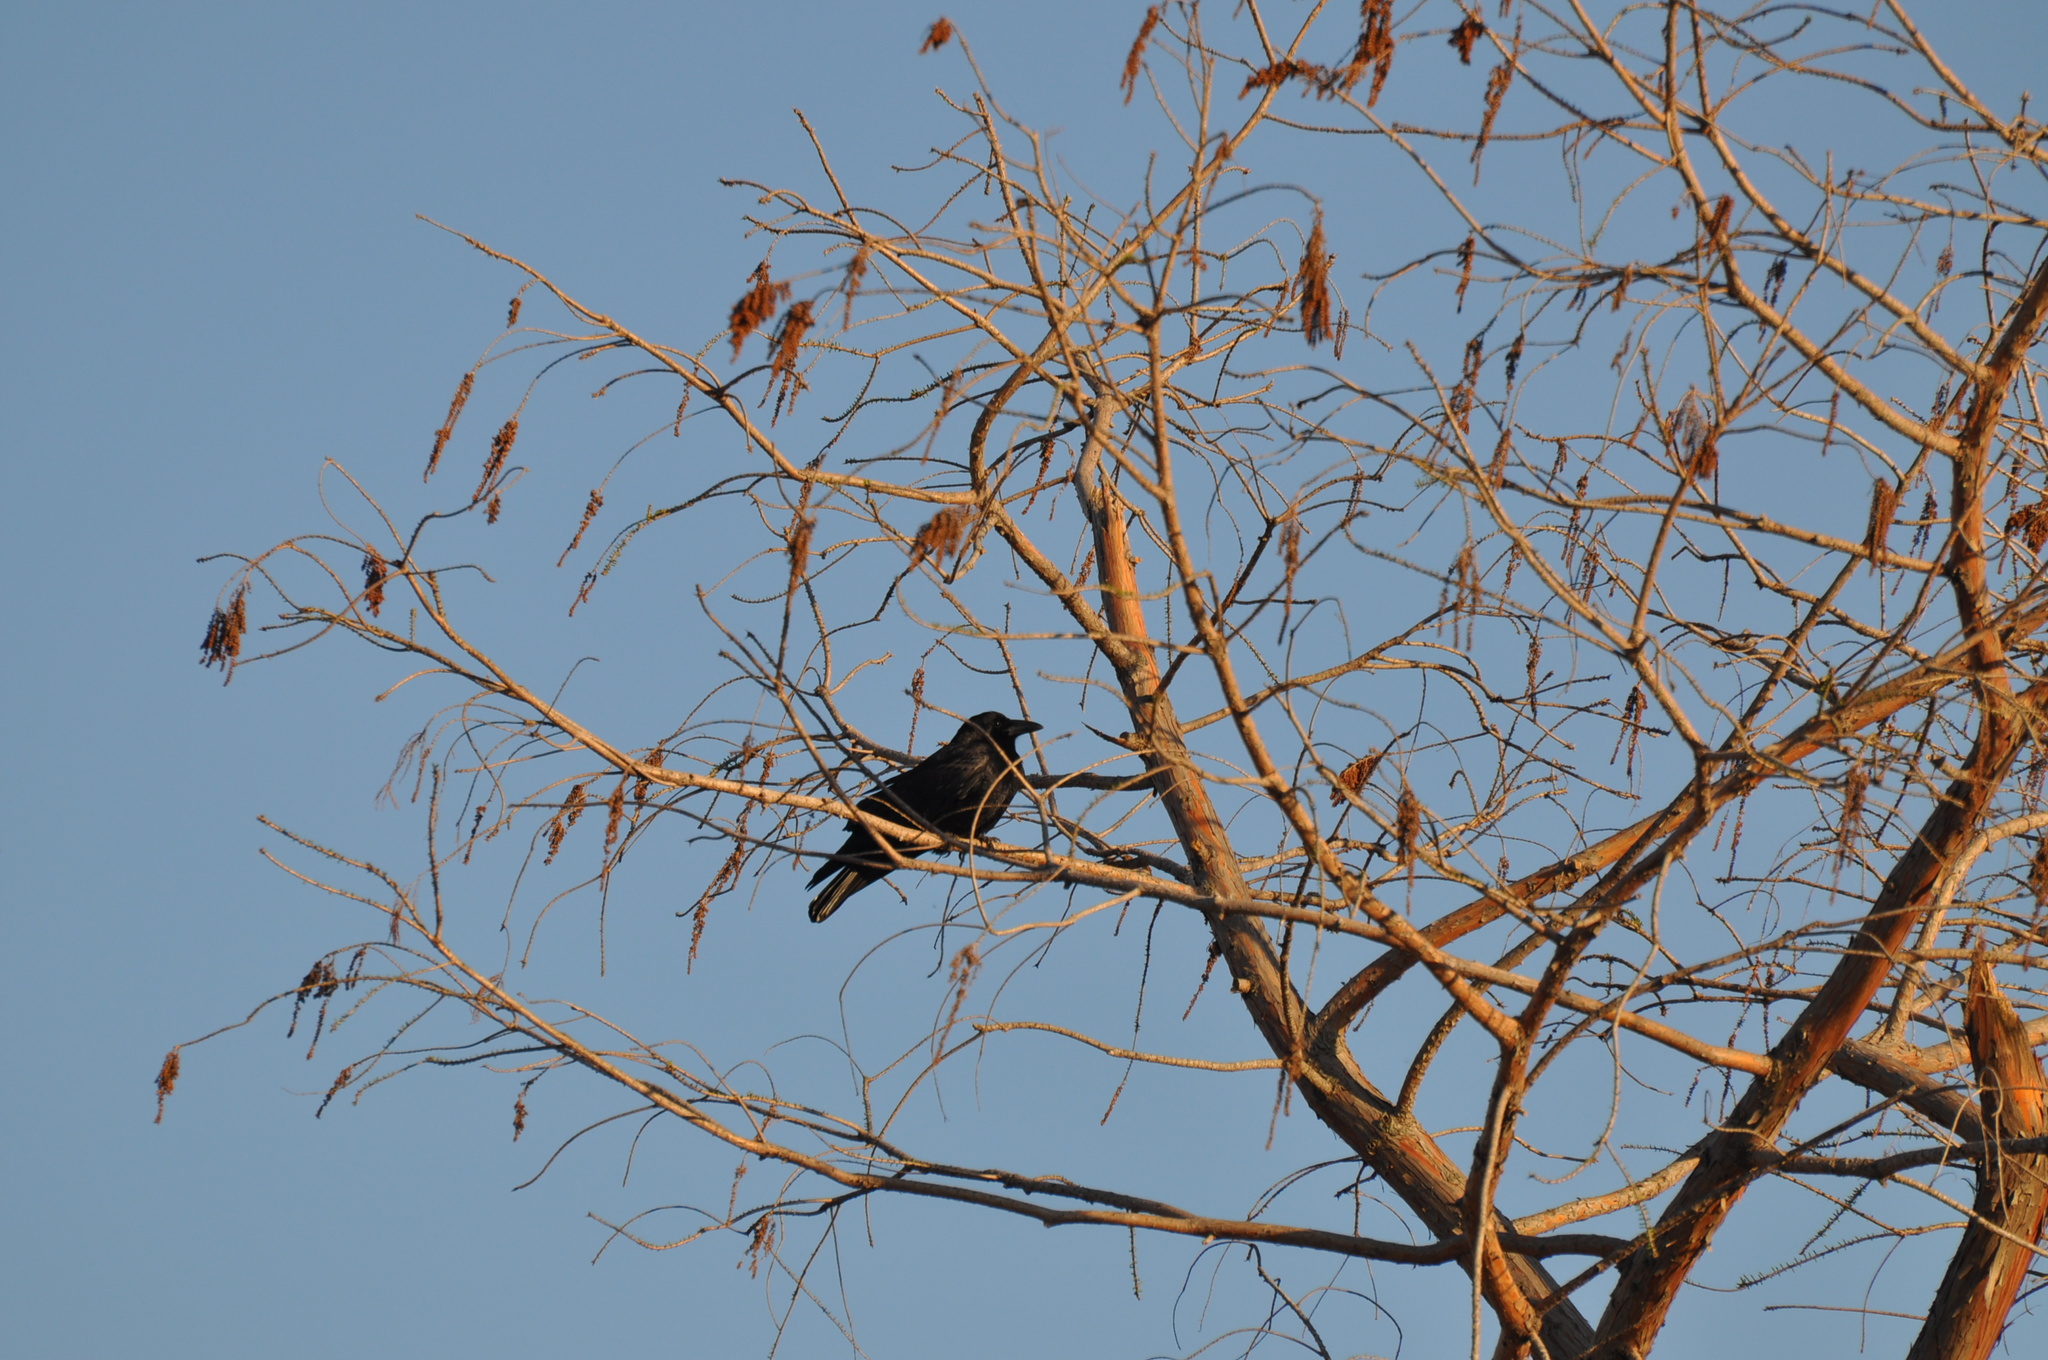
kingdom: Animalia
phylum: Chordata
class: Aves
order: Passeriformes
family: Corvidae
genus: Corvus
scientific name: Corvus brachyrhynchos
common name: American crow
